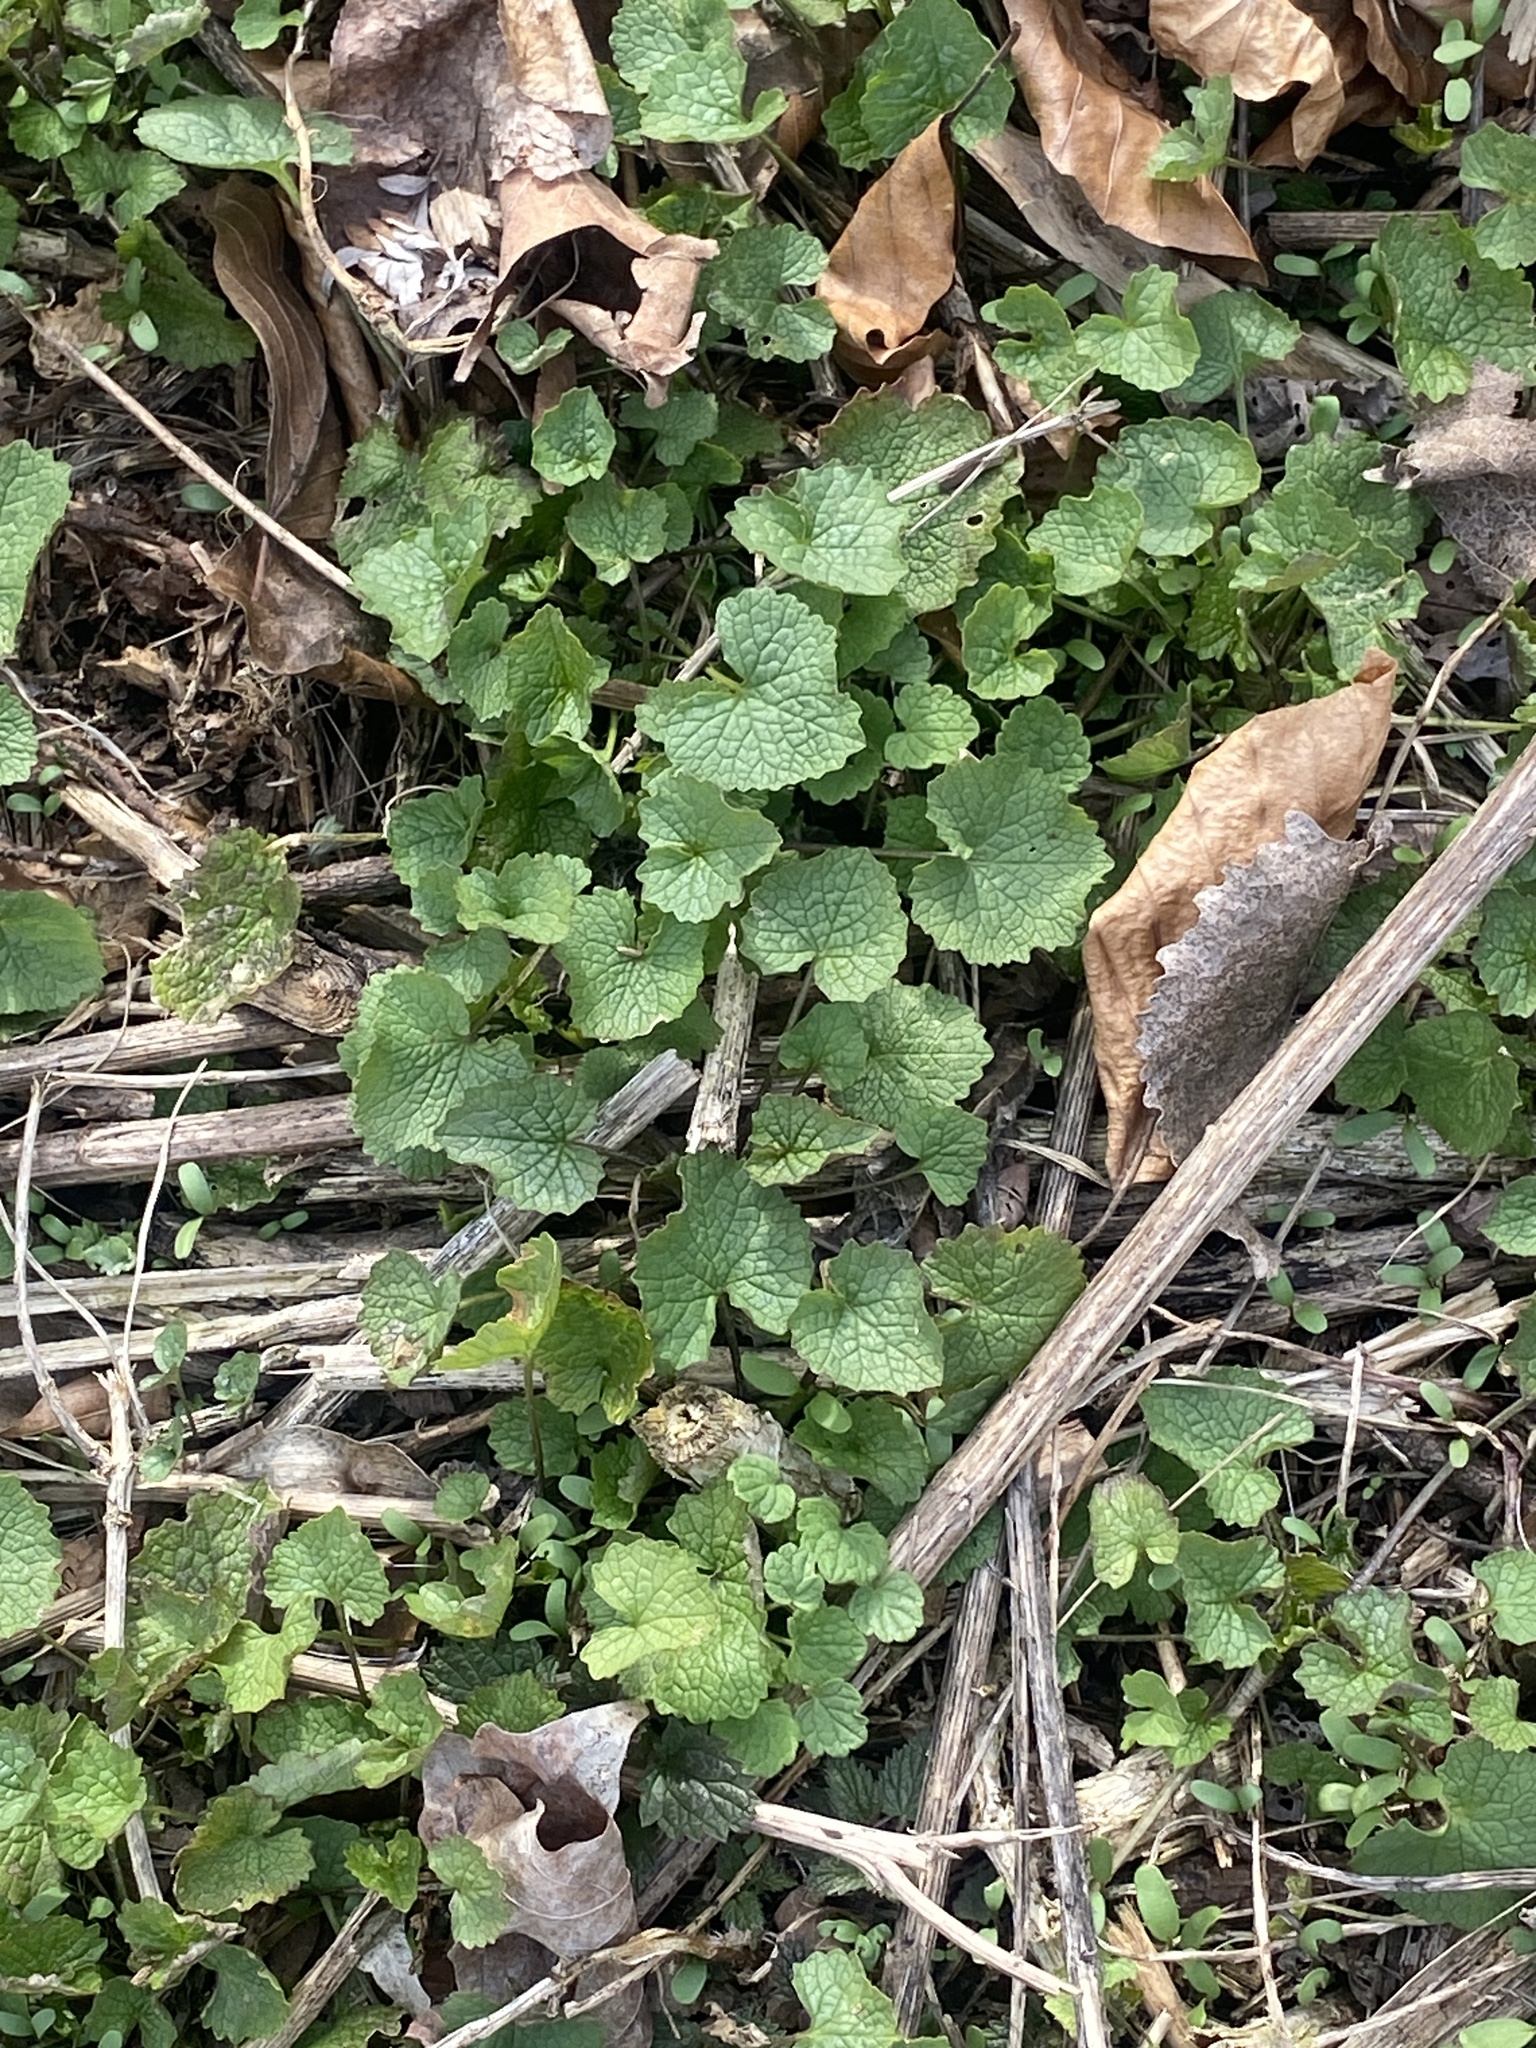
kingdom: Plantae
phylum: Tracheophyta
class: Magnoliopsida
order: Brassicales
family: Brassicaceae
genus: Alliaria
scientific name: Alliaria petiolata
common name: Garlic mustard
